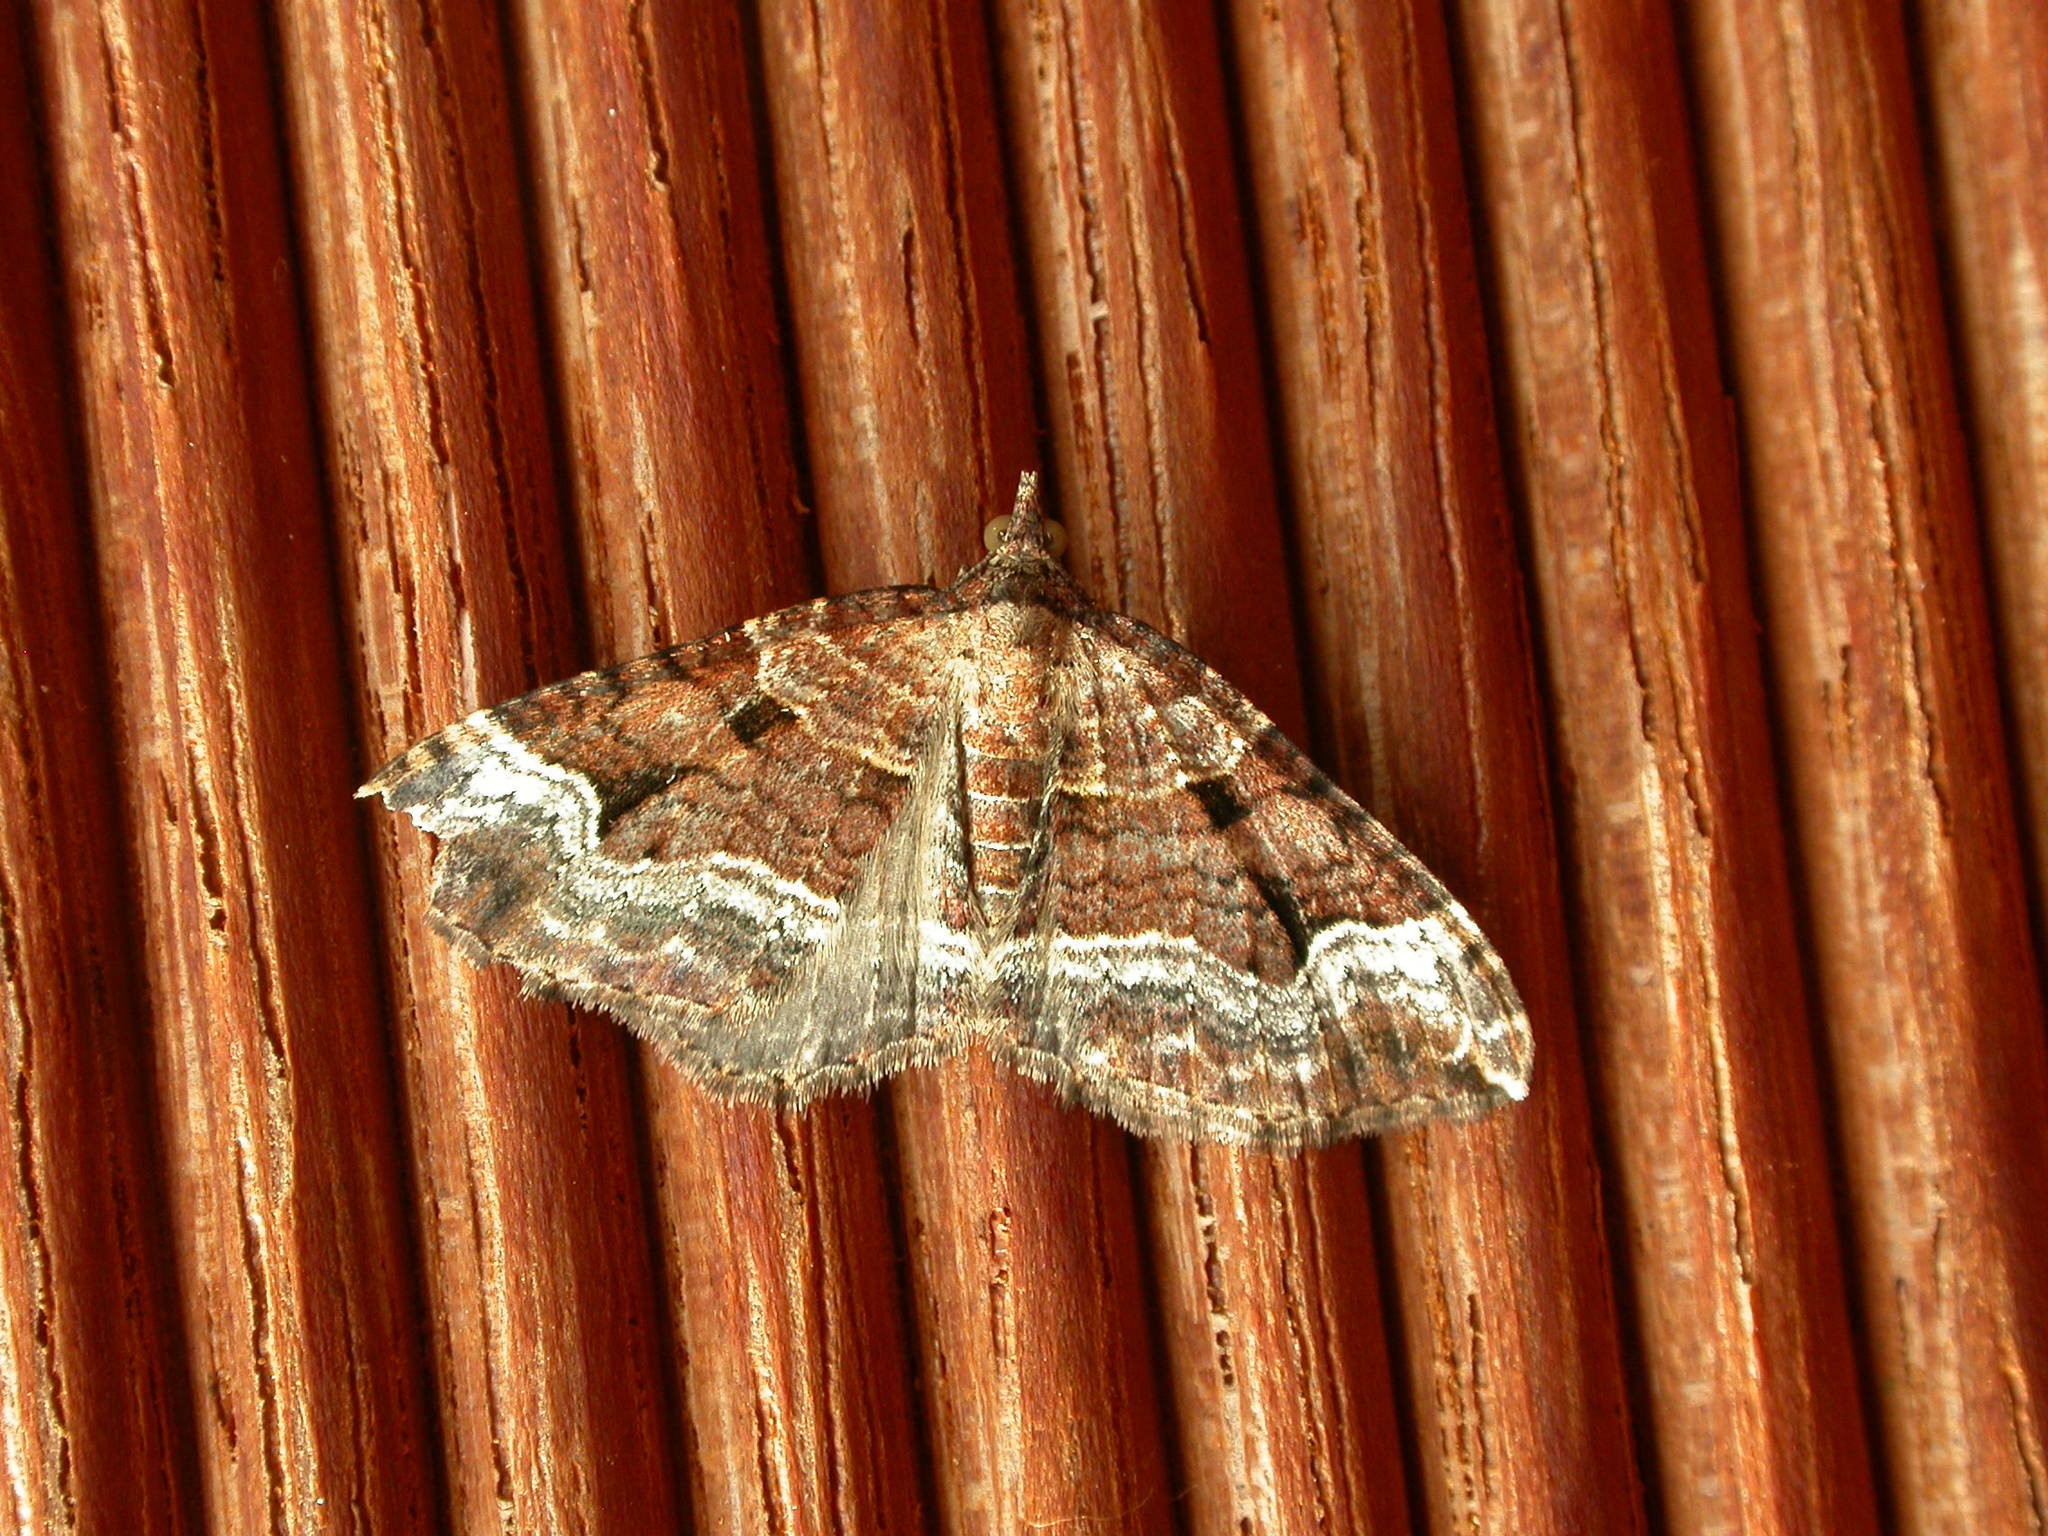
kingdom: Animalia
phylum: Arthropoda
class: Insecta
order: Lepidoptera
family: Geometridae
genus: Epyaxa
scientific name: Epyaxa subidaria
